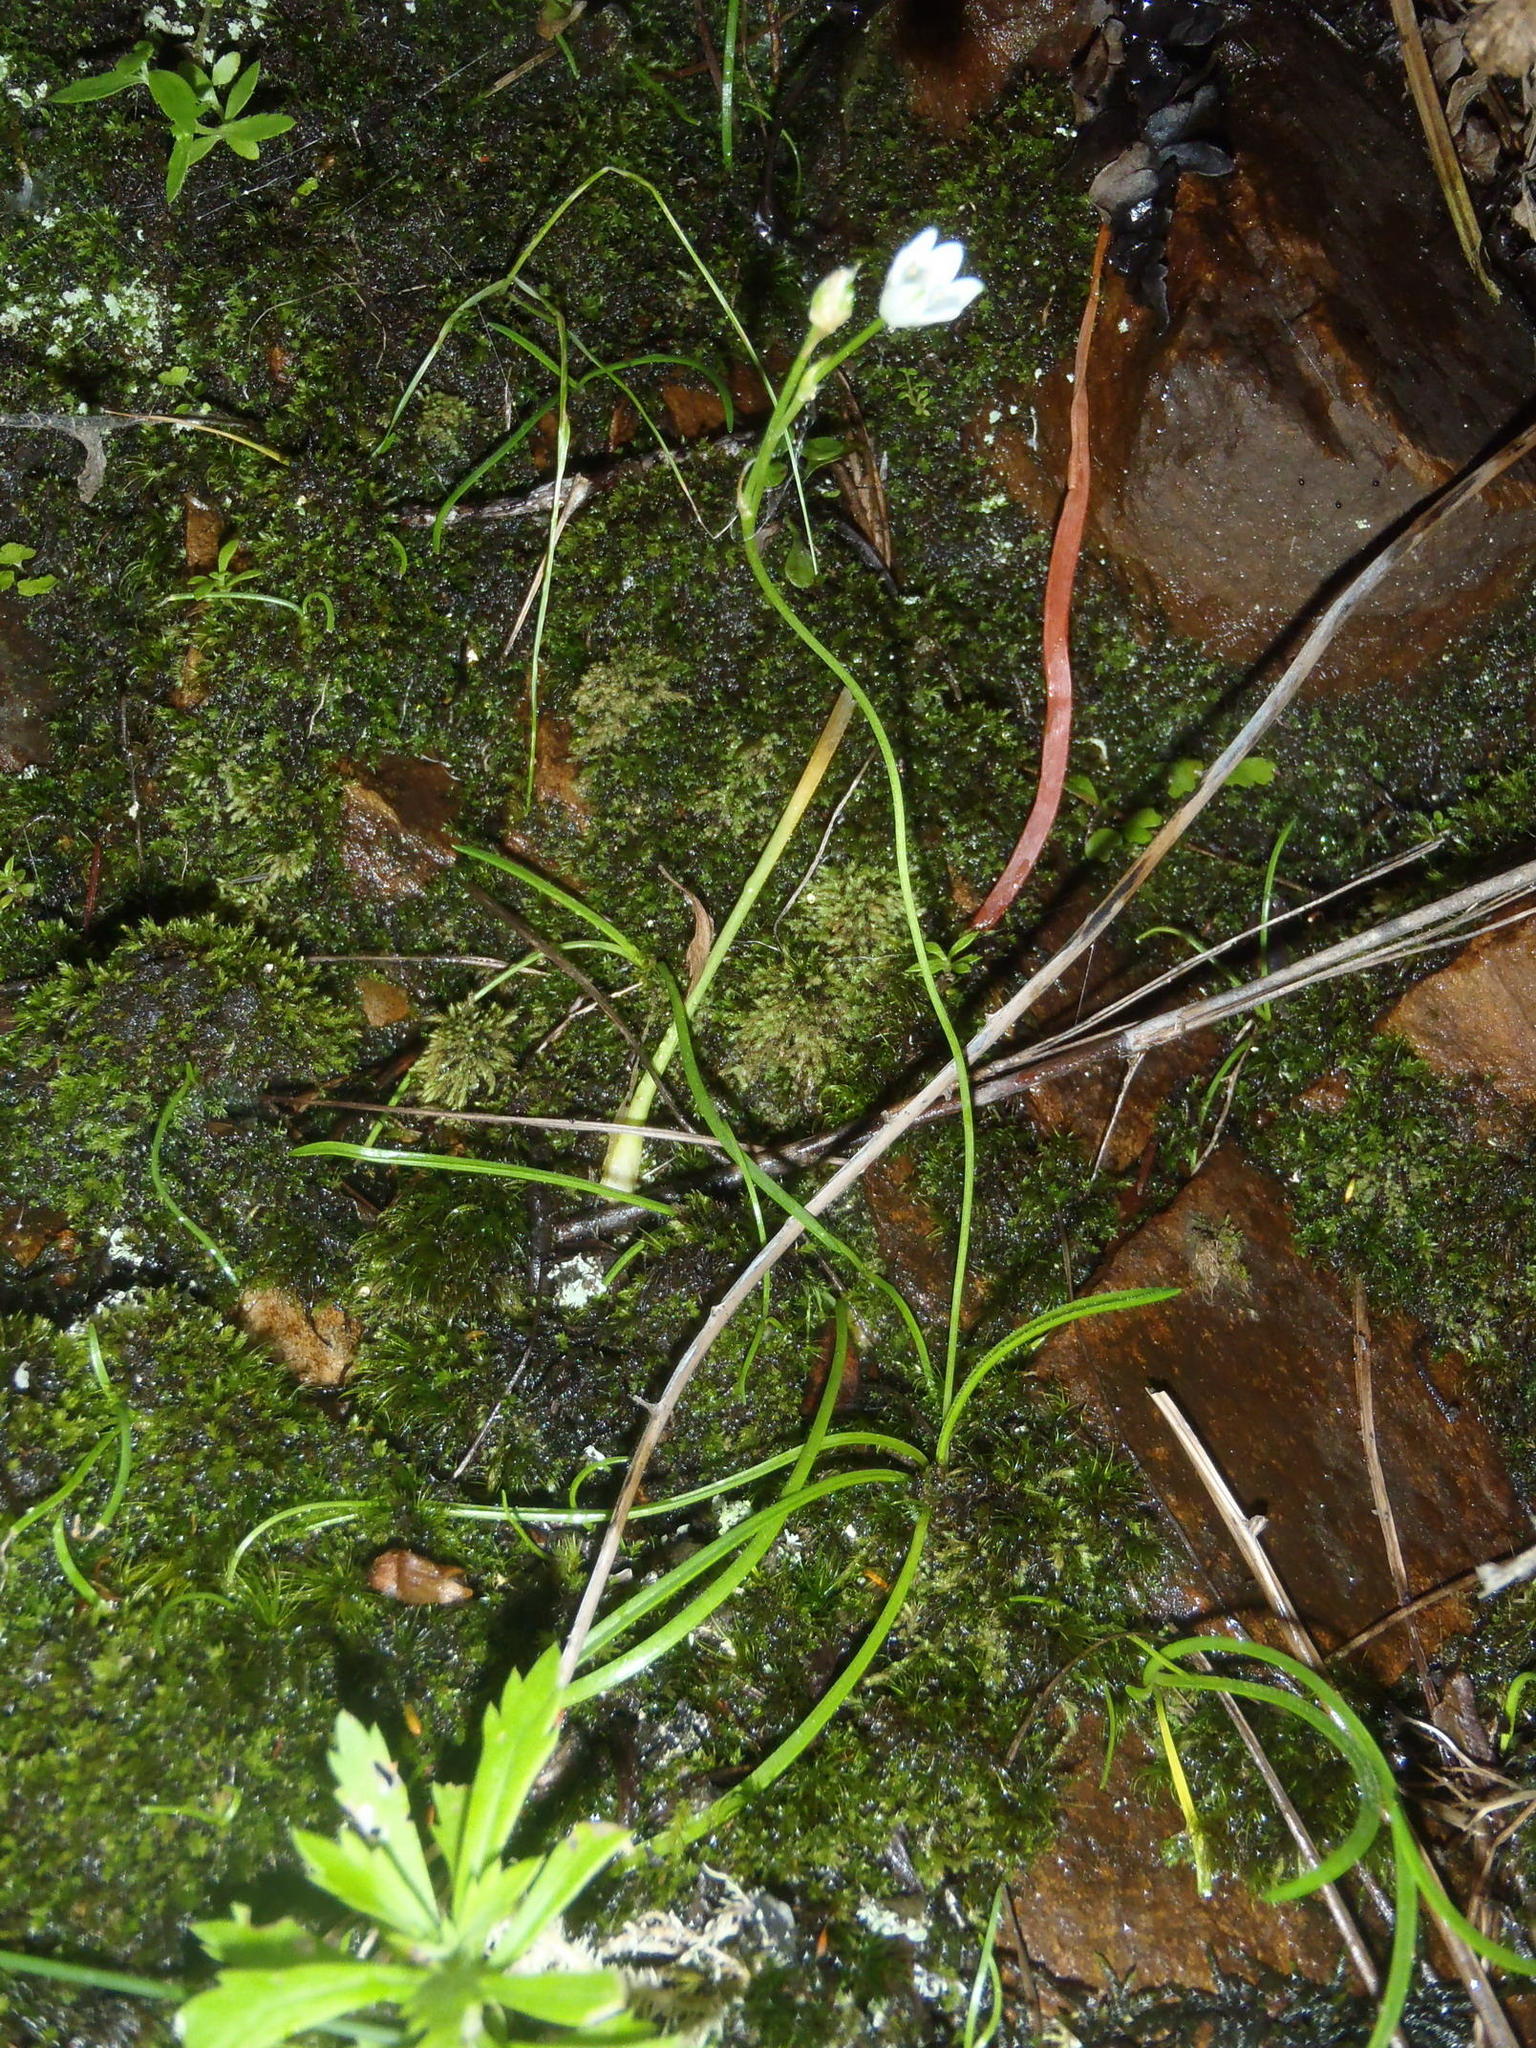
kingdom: Plantae
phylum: Tracheophyta
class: Liliopsida
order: Asparagales
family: Asparagaceae
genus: Ornithogalum
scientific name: Ornithogalum niveum
